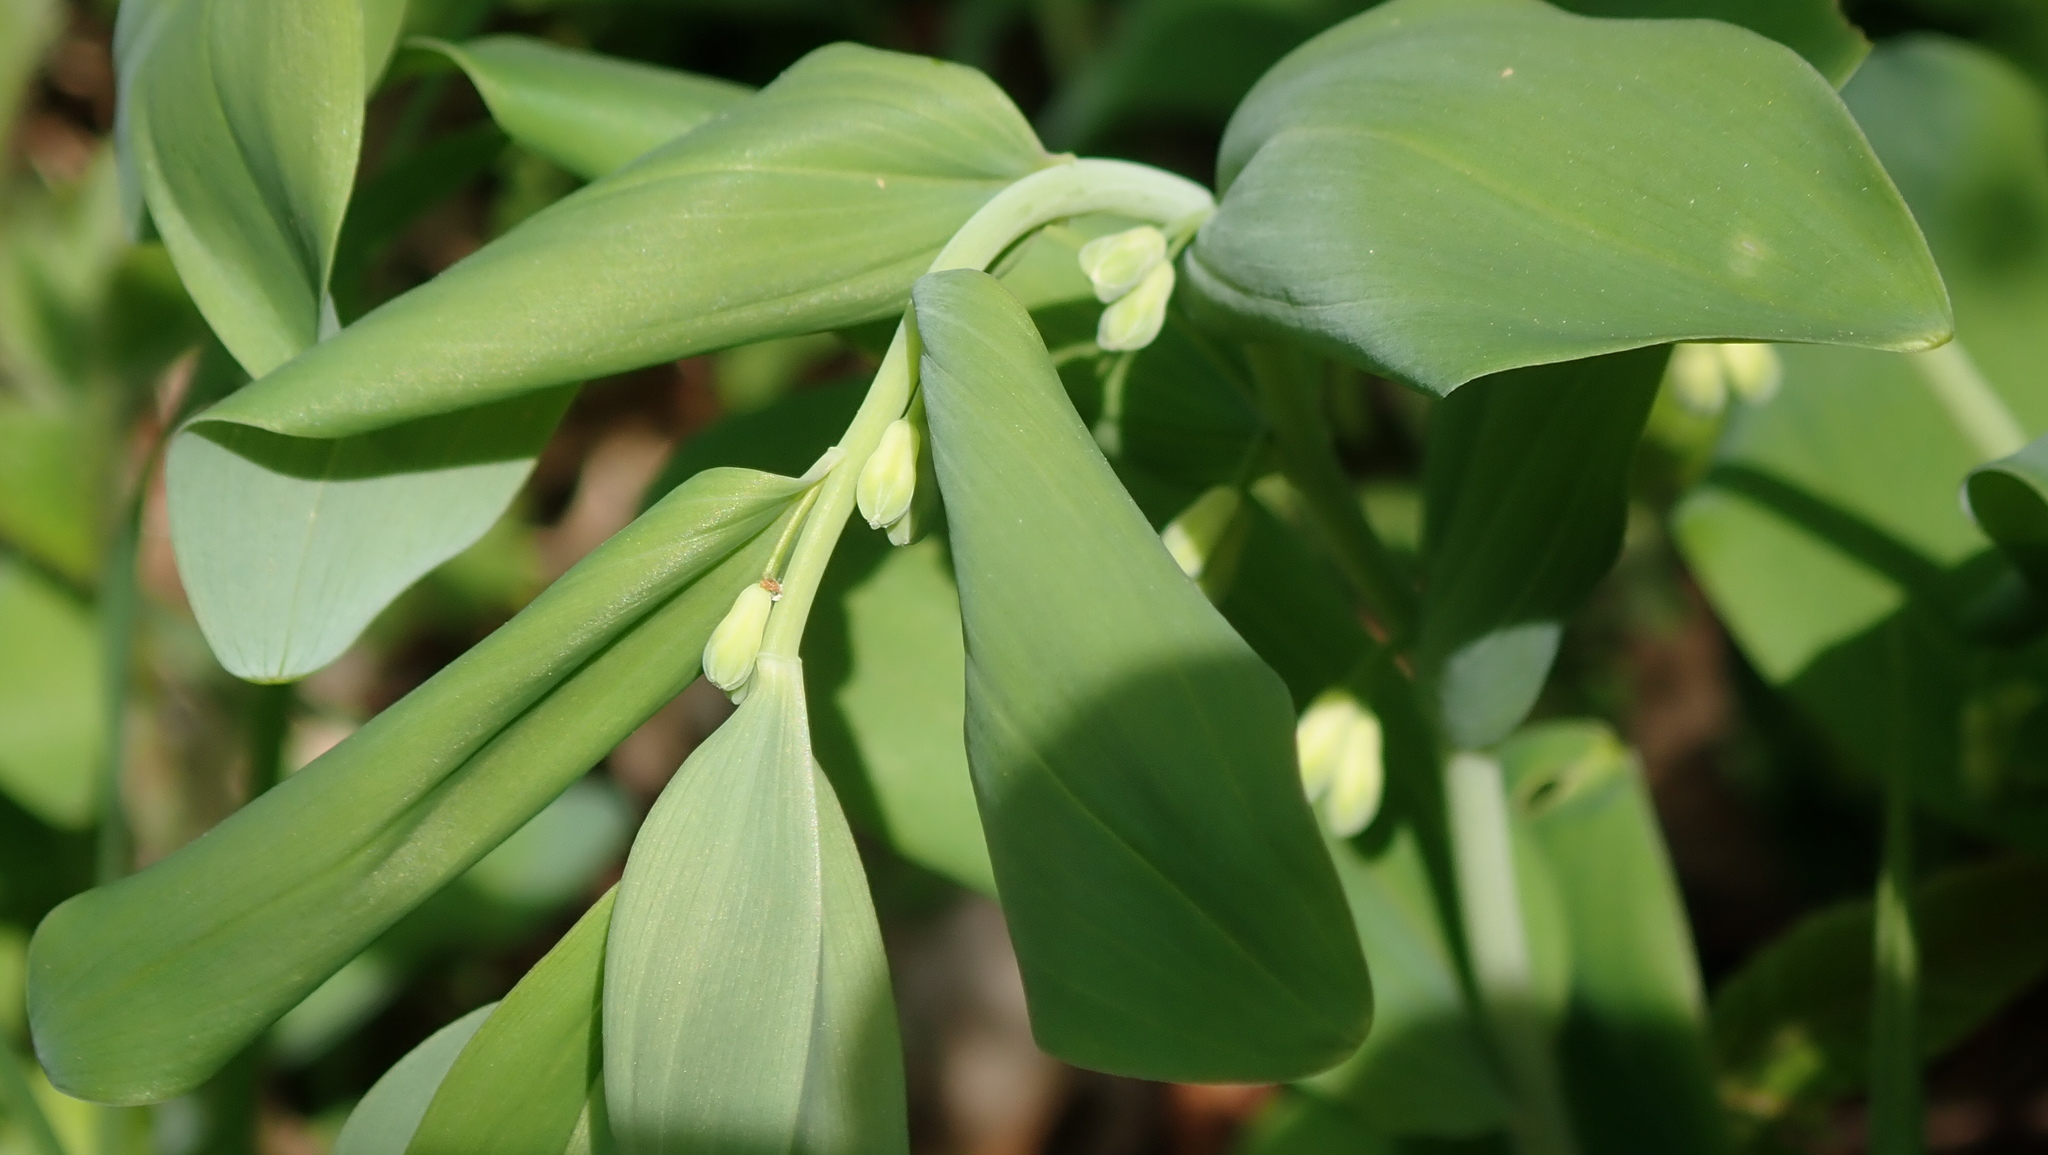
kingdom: Plantae
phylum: Tracheophyta
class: Liliopsida
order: Asparagales
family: Asparagaceae
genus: Polygonatum
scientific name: Polygonatum multiflorum
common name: Solomon's-seal
